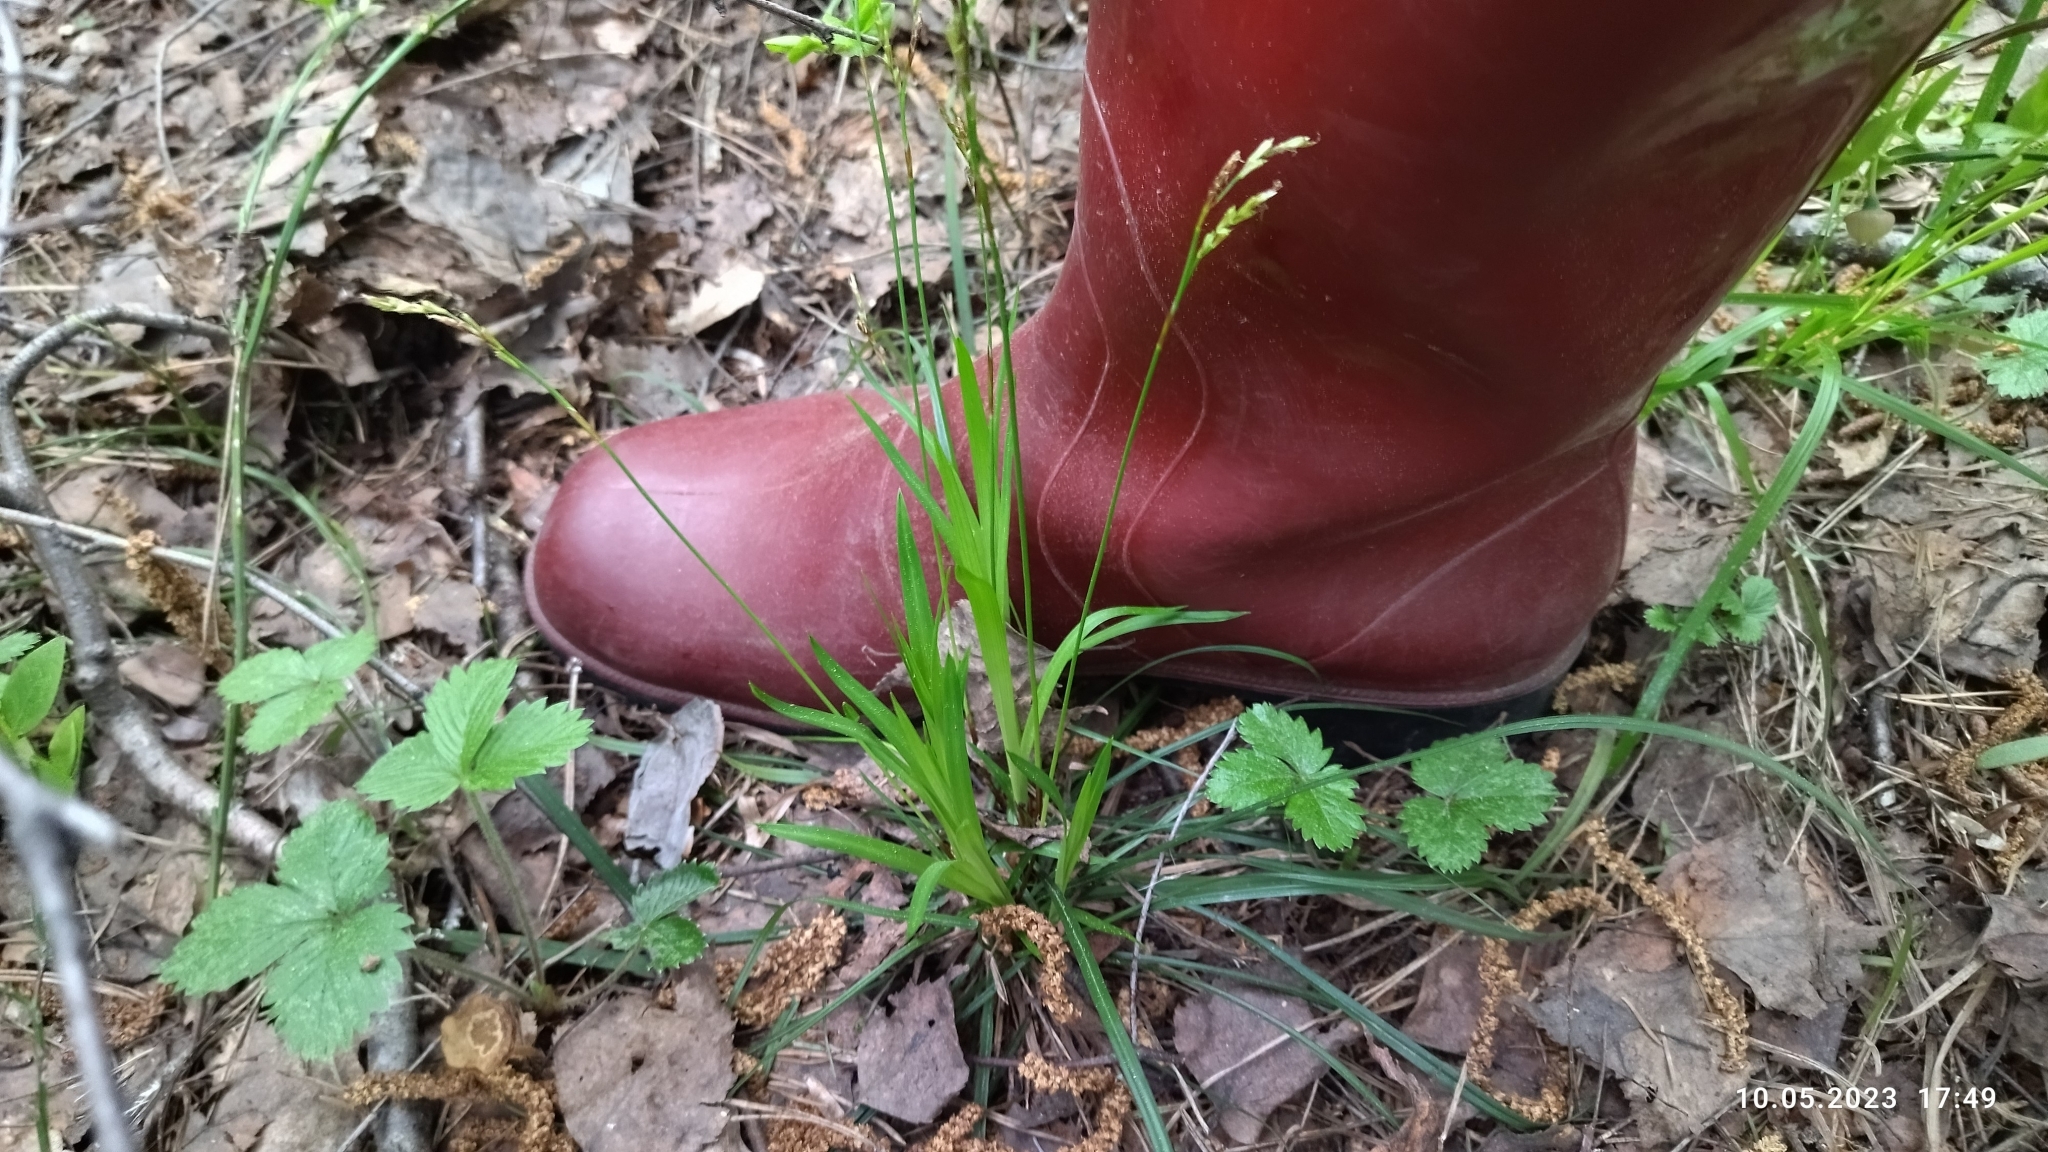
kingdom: Plantae
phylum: Tracheophyta
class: Liliopsida
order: Poales
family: Cyperaceae
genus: Carex
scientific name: Carex digitata
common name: Fingered sedge
